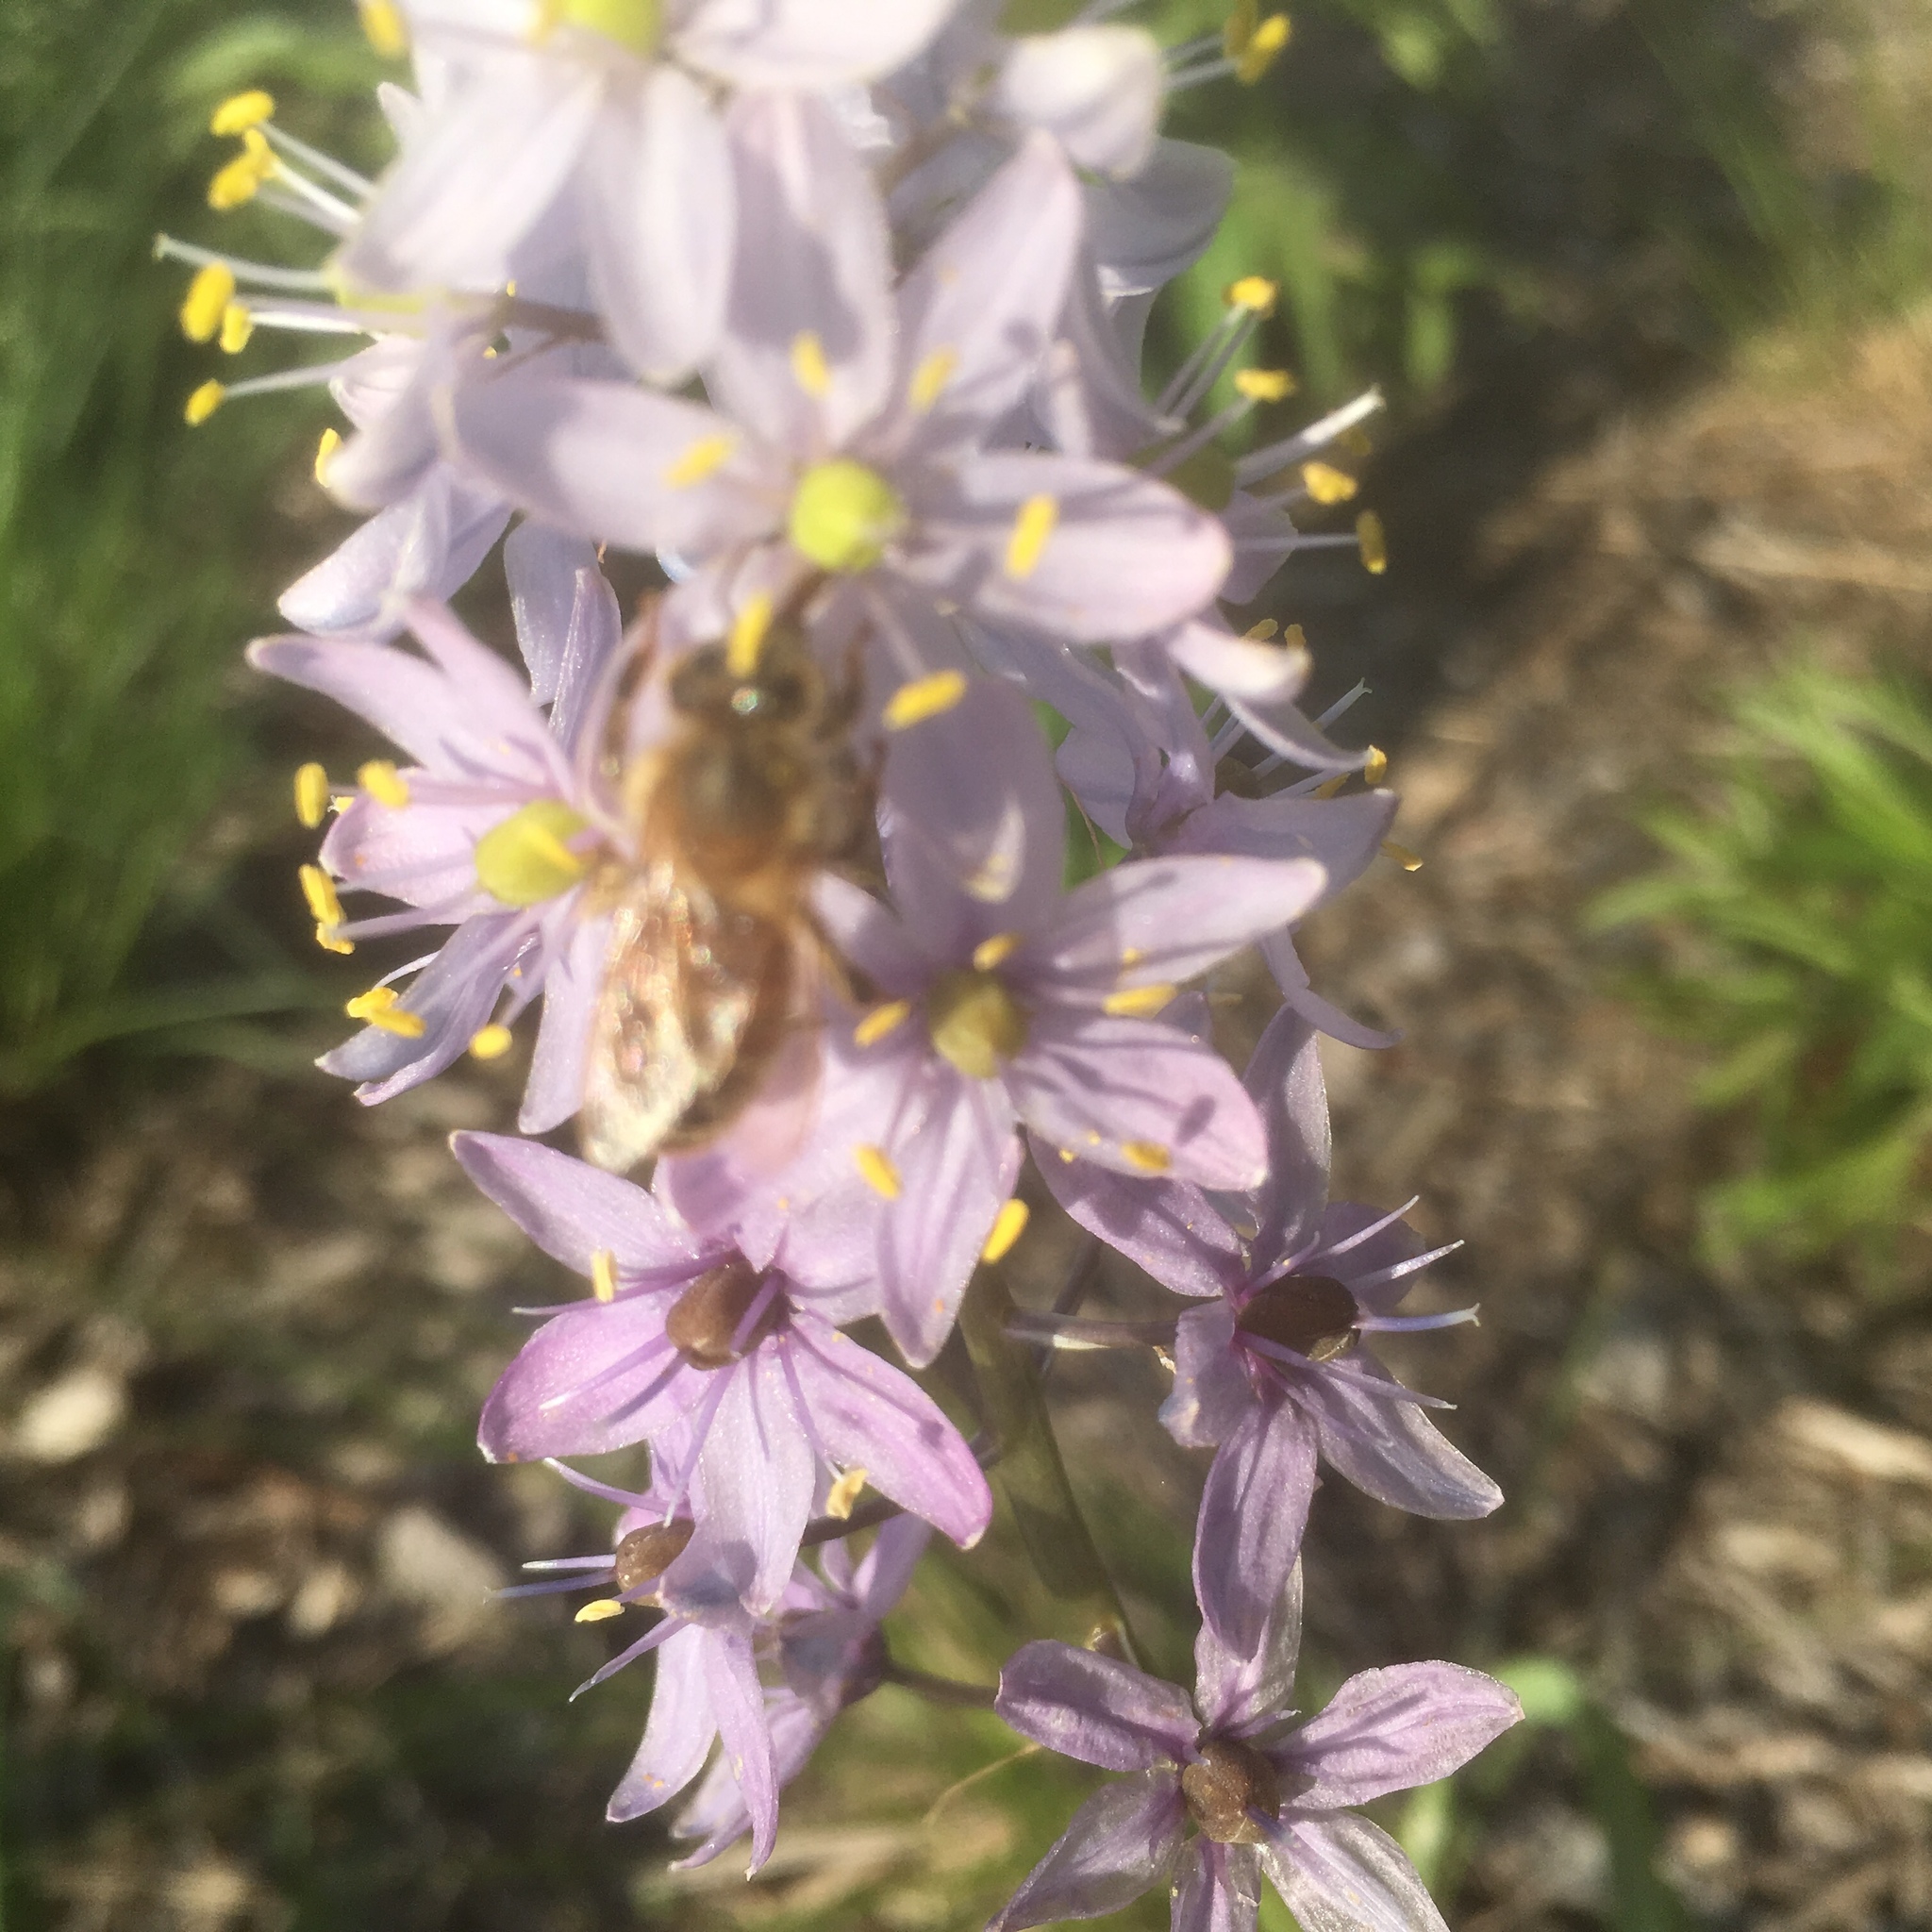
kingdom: Animalia
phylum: Arthropoda
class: Insecta
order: Hymenoptera
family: Apidae
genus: Apis
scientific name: Apis mellifera
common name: Honey bee
